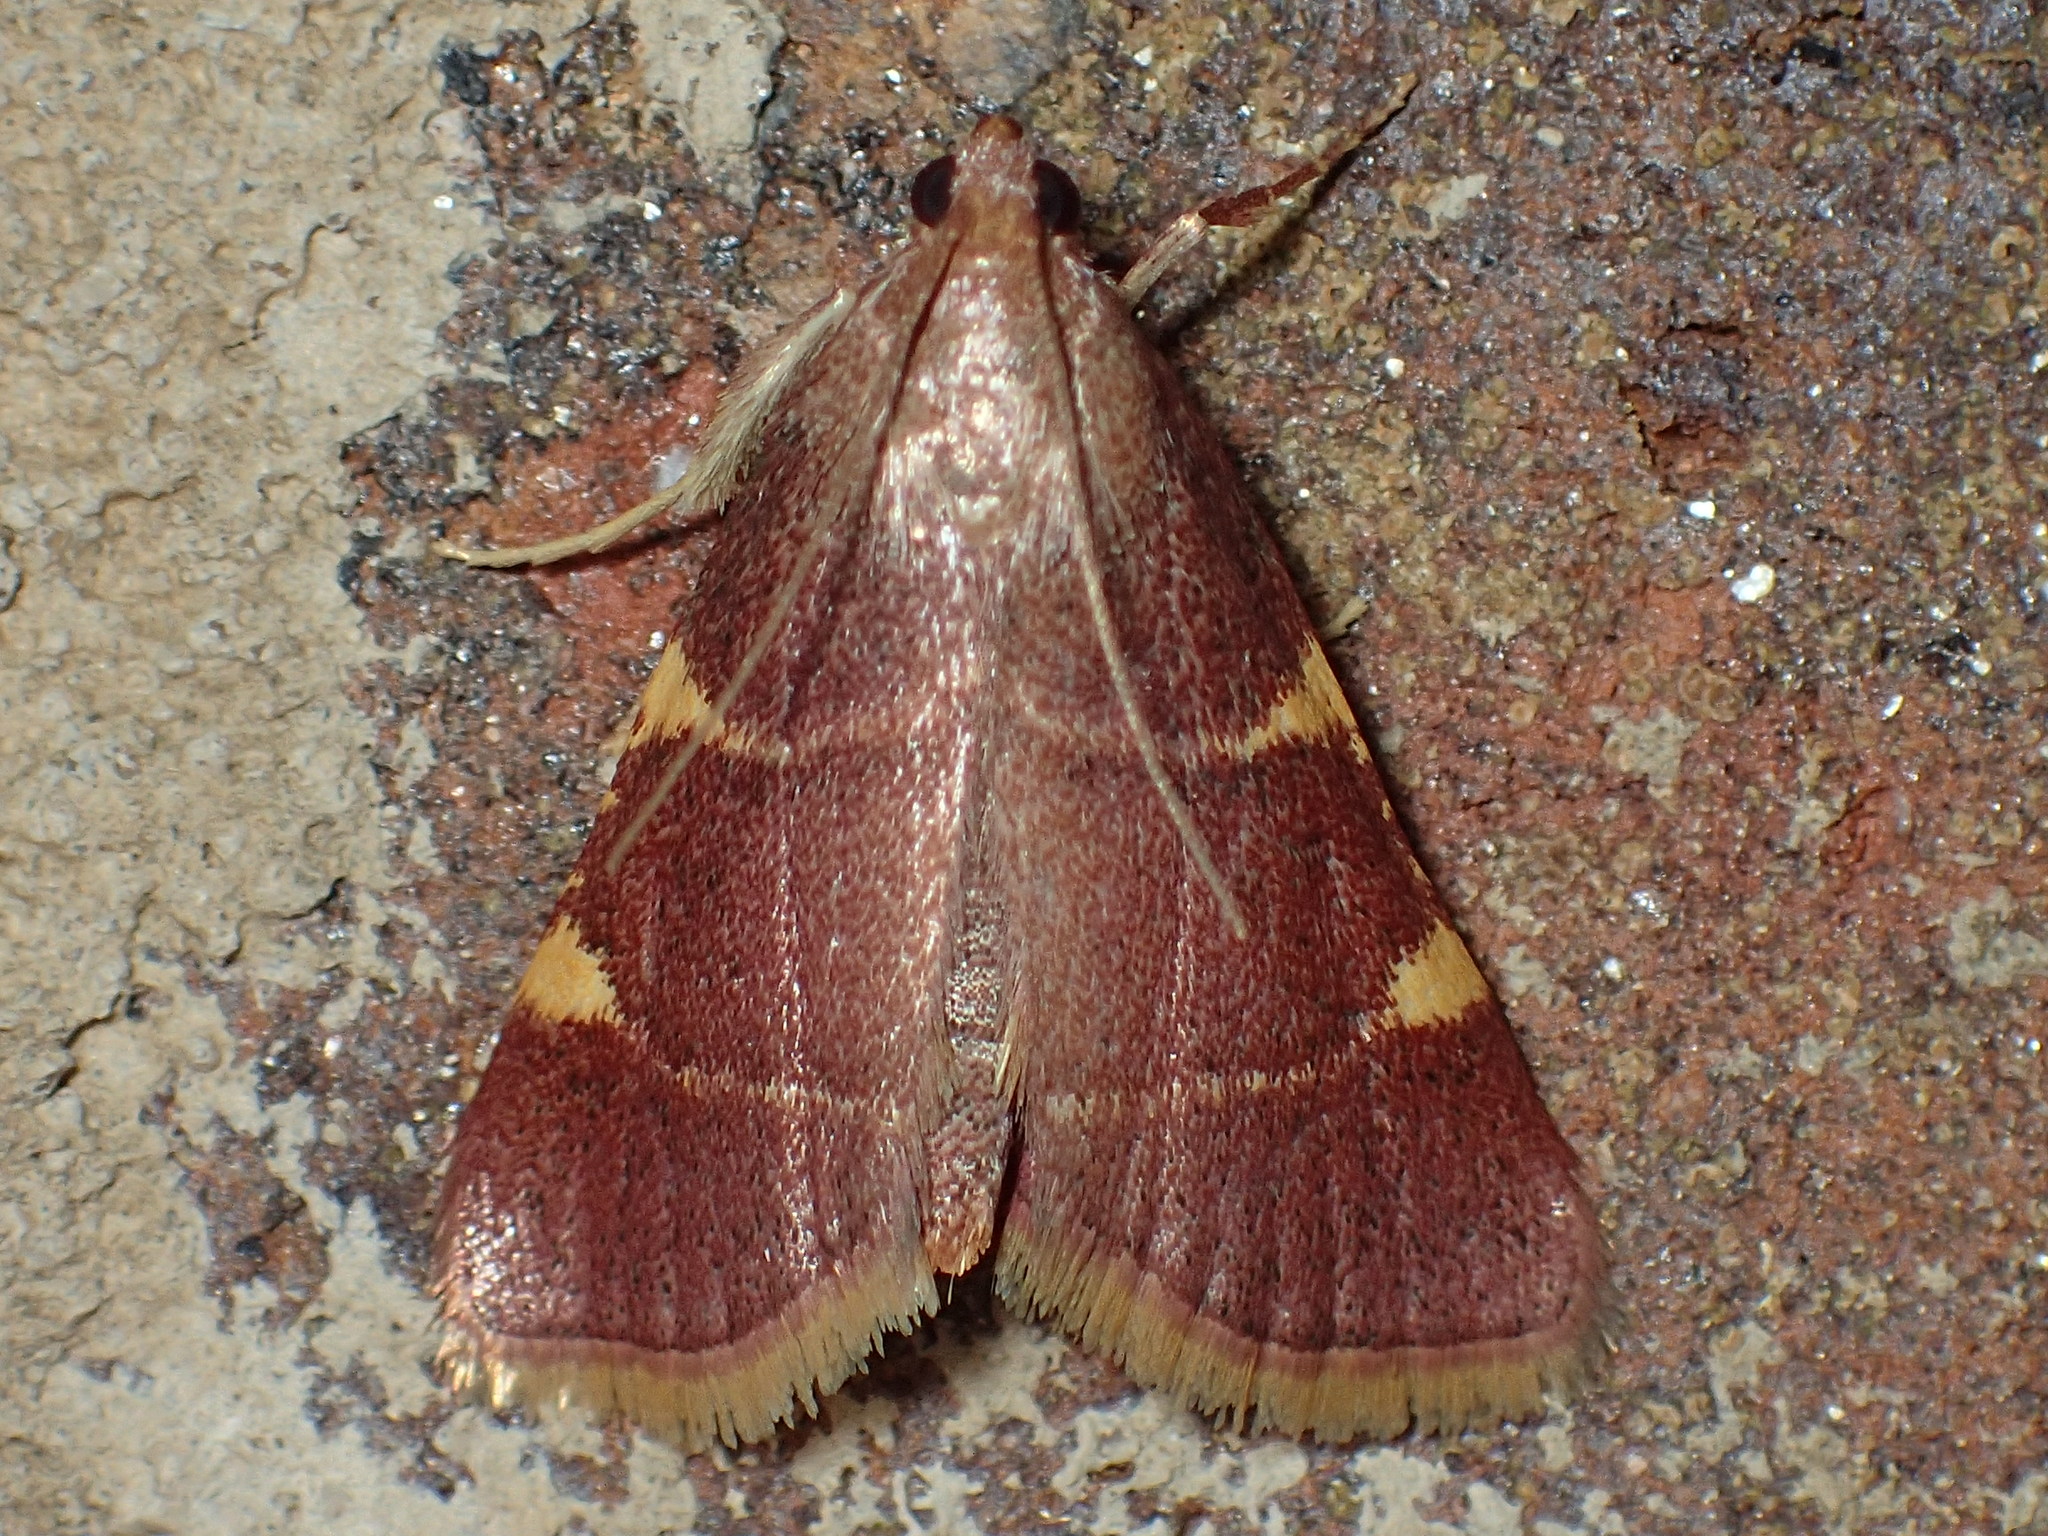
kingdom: Animalia
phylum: Arthropoda
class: Insecta
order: Lepidoptera
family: Pyralidae
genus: Hypsopygia
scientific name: Hypsopygia olinalis
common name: Yellow-fringed dolichomia moth
